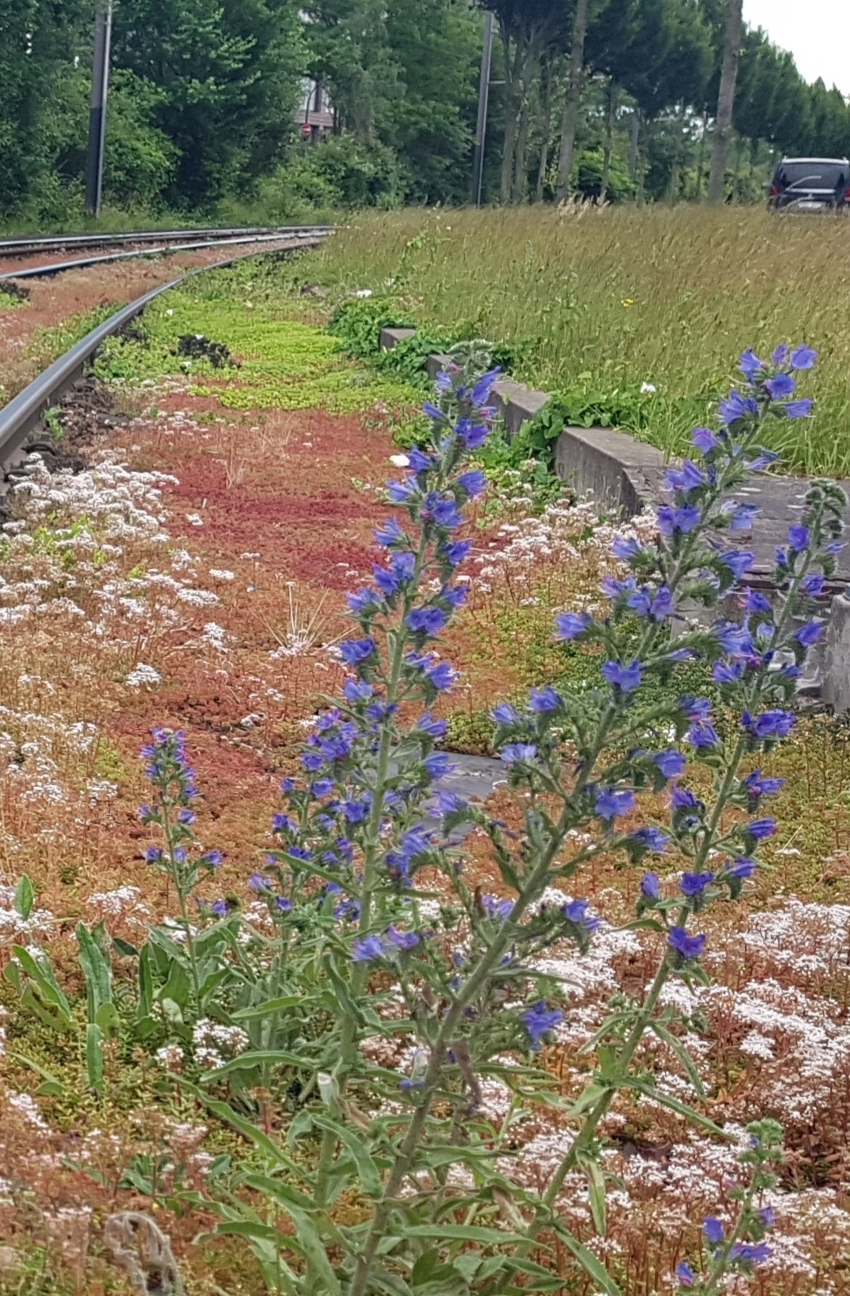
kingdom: Plantae
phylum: Tracheophyta
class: Magnoliopsida
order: Boraginales
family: Boraginaceae
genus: Echium
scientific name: Echium vulgare
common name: Common viper's bugloss
